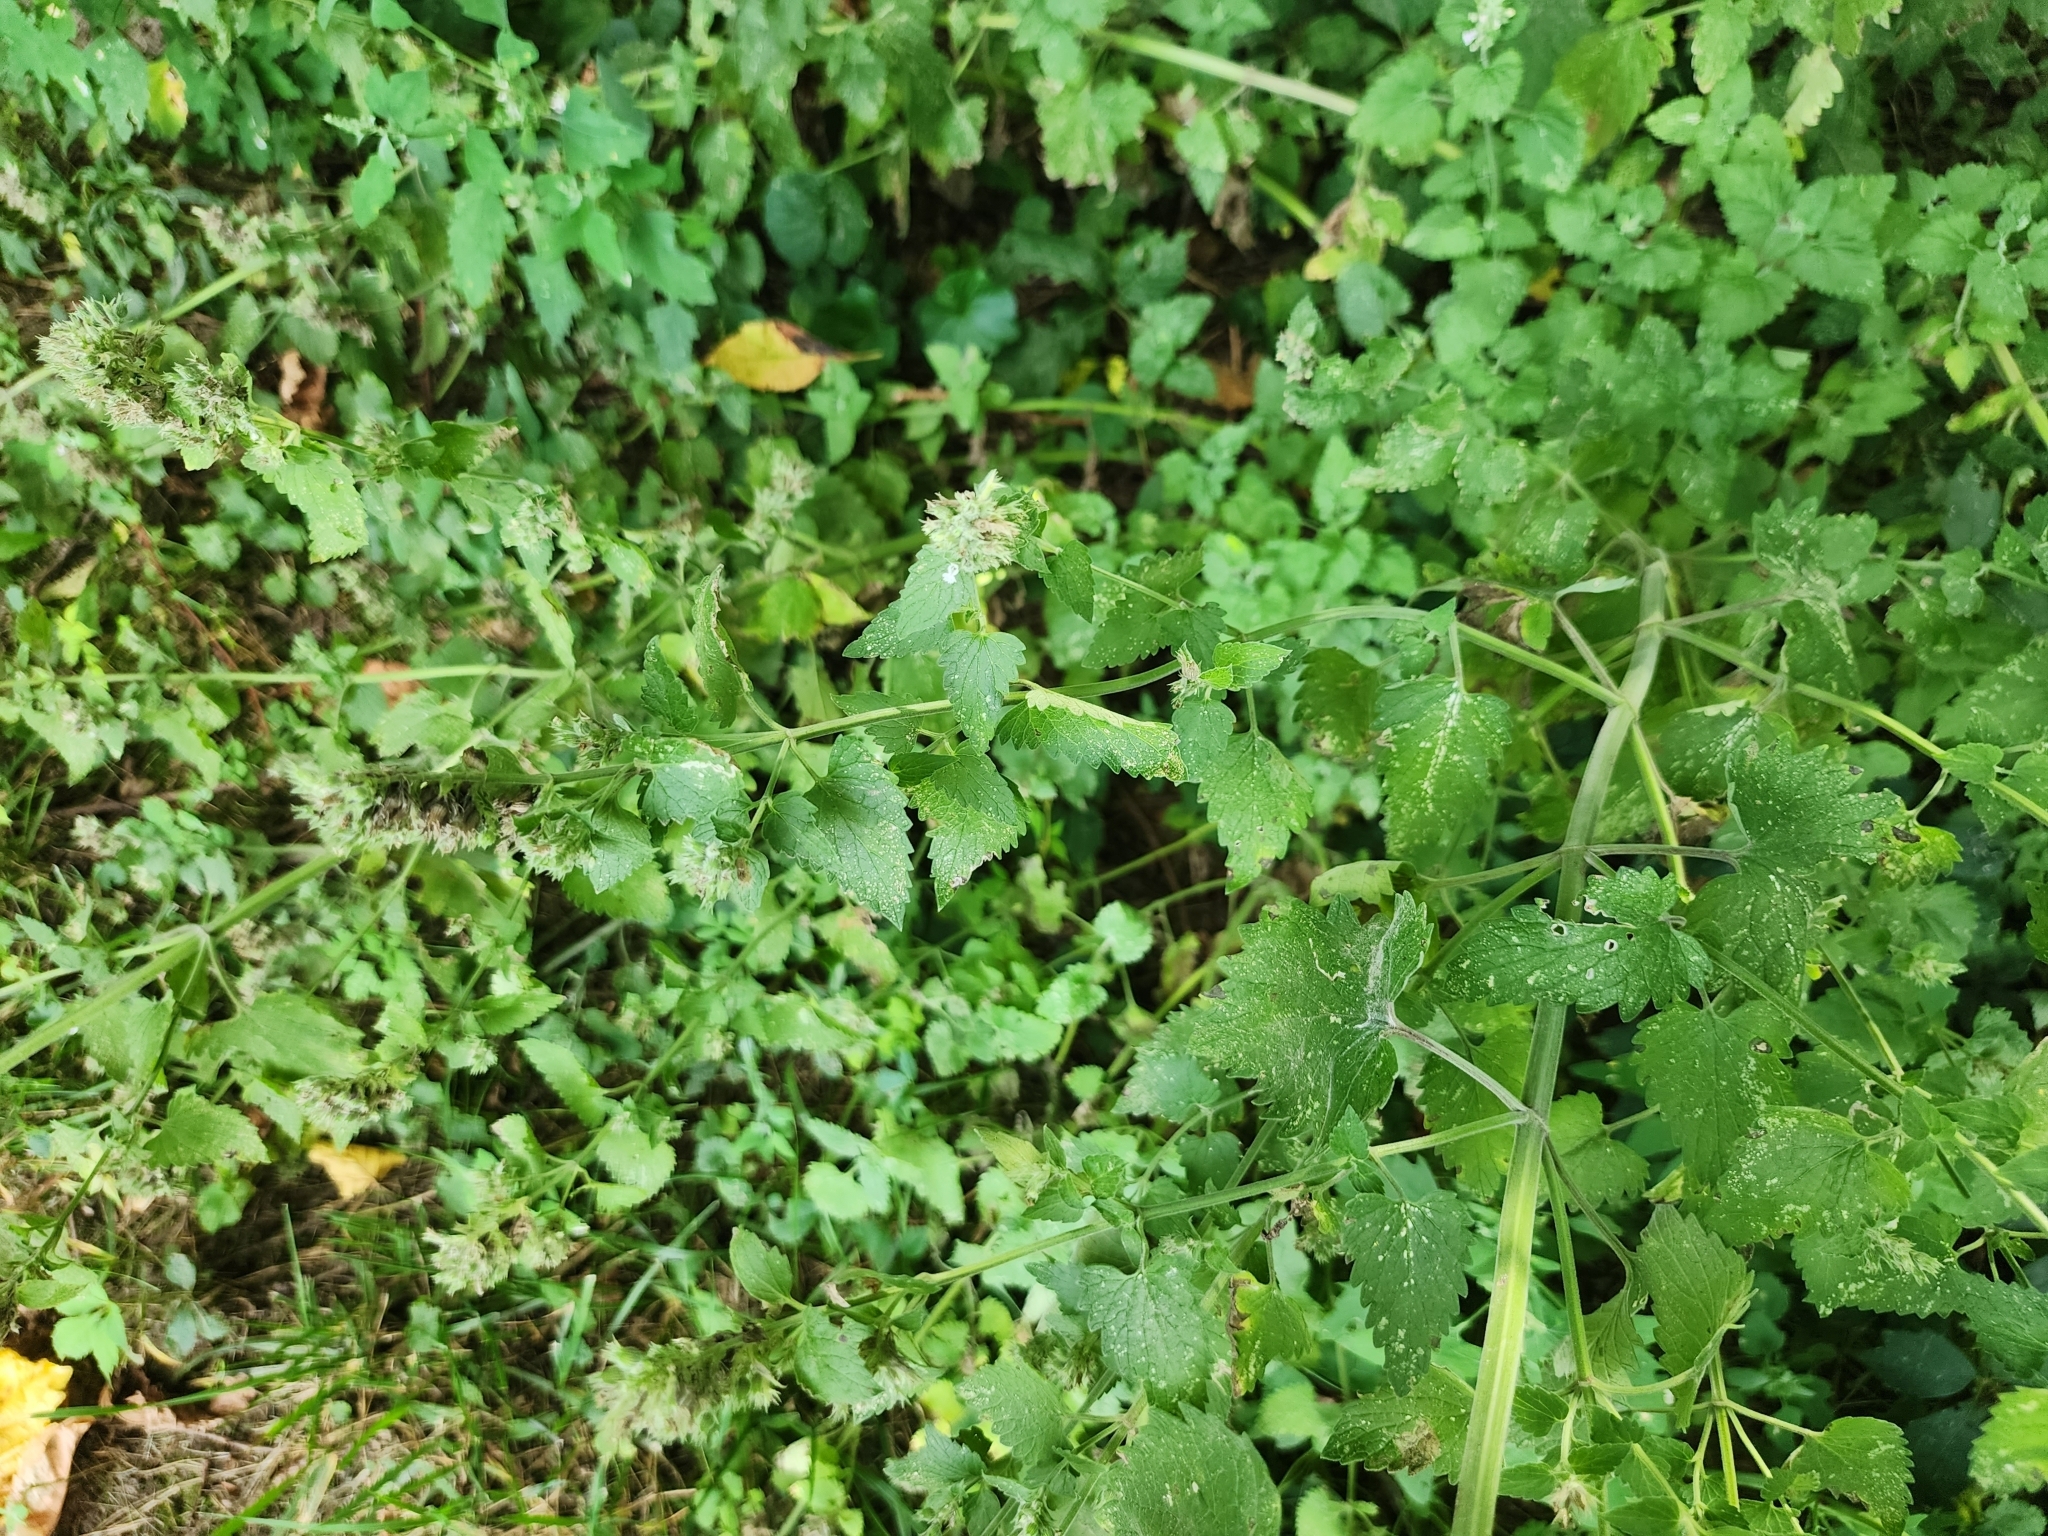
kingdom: Plantae
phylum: Tracheophyta
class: Magnoliopsida
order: Lamiales
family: Lamiaceae
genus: Nepeta
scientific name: Nepeta cataria
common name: Catnip
